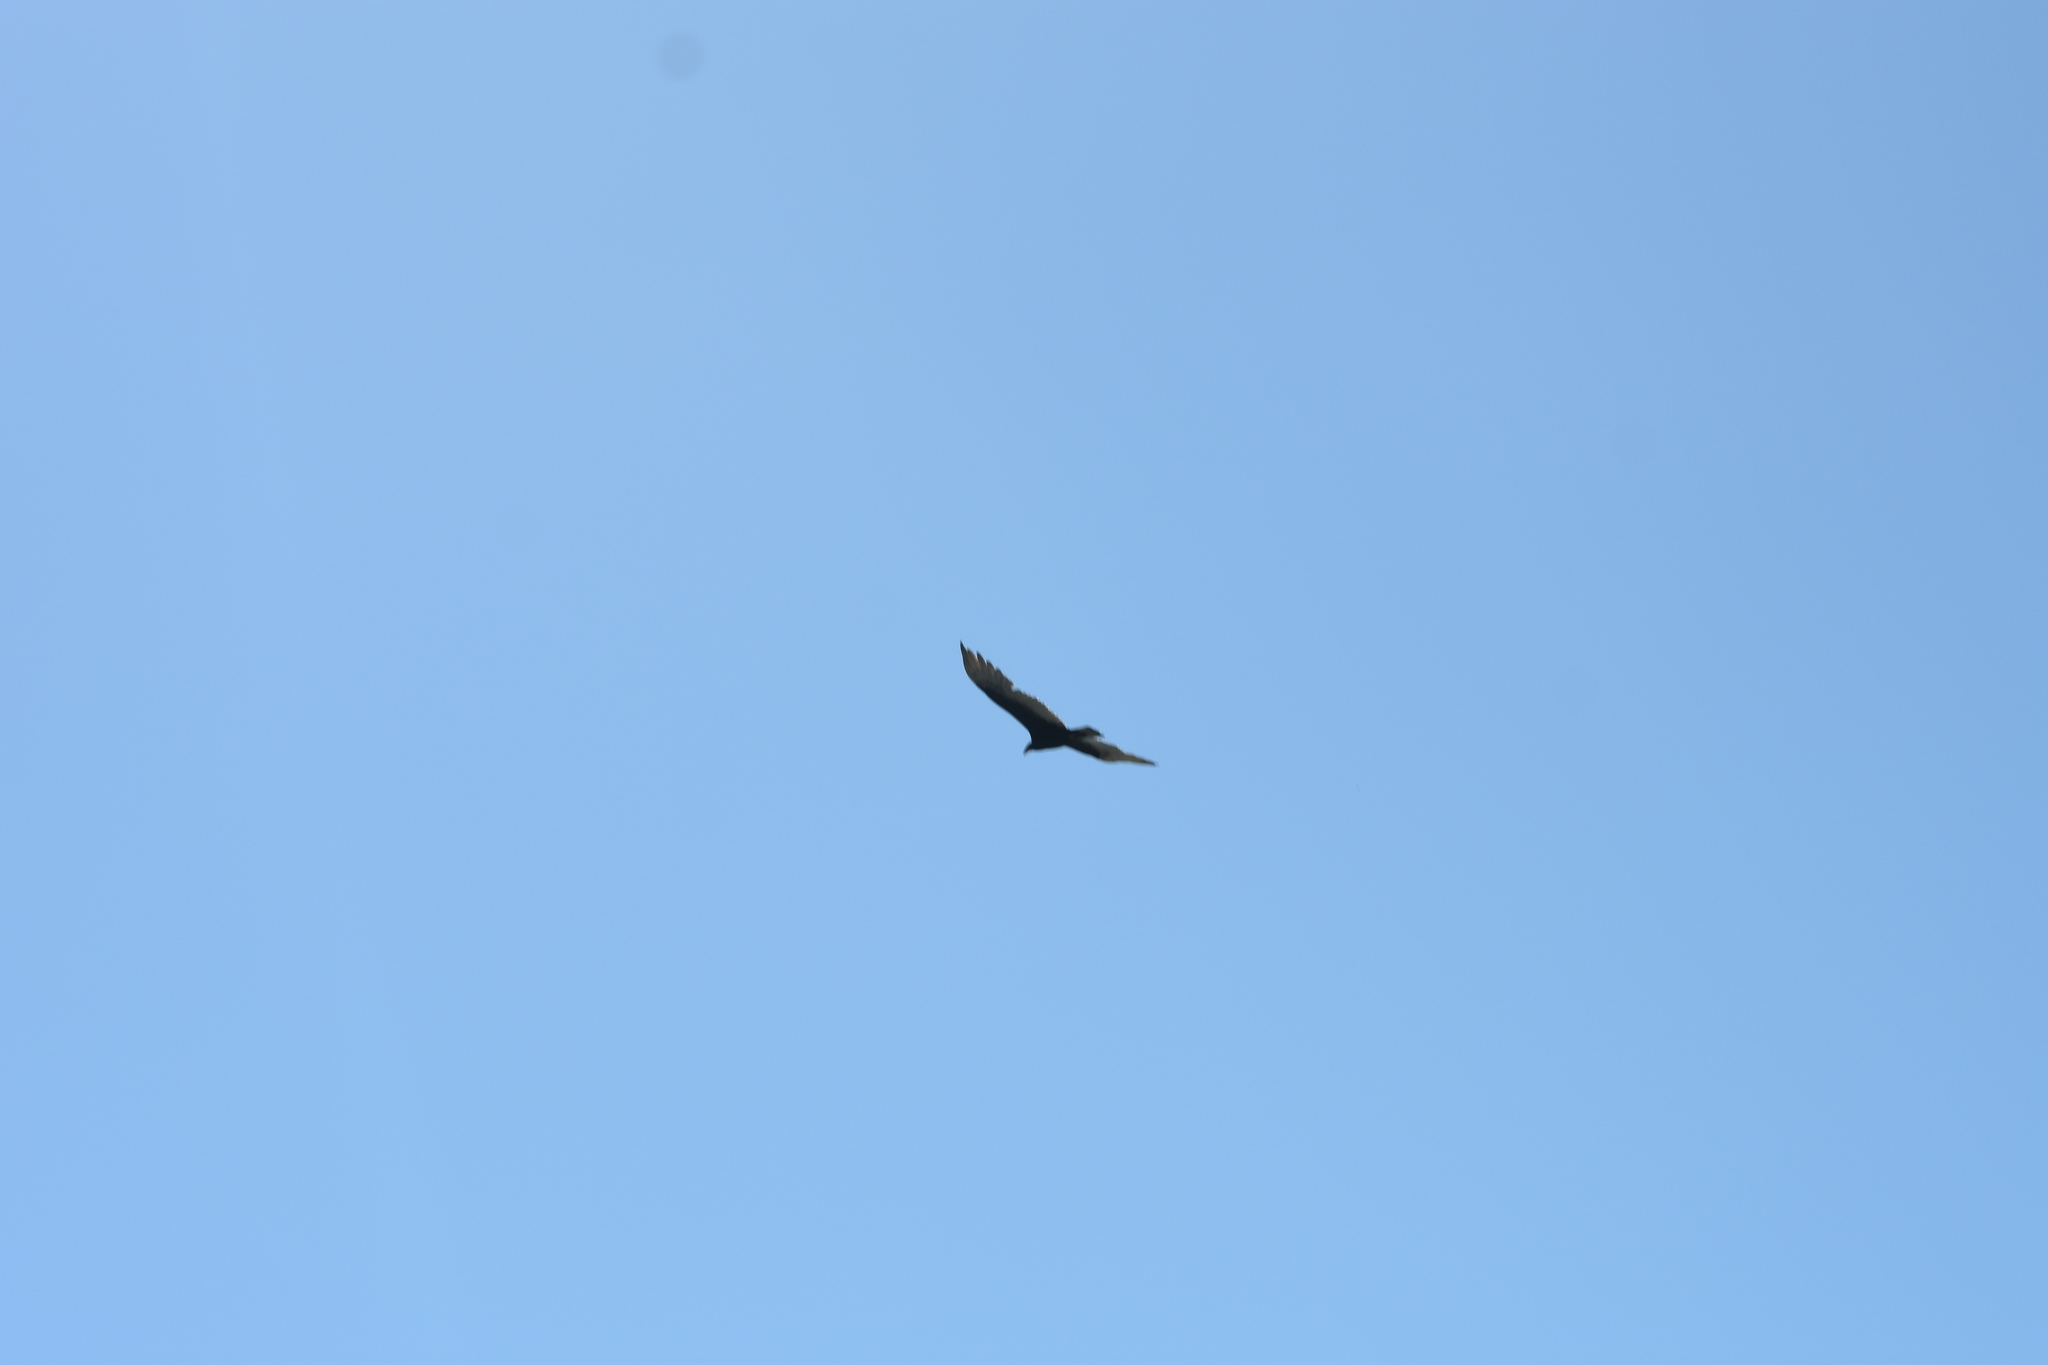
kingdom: Animalia
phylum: Chordata
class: Aves
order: Accipitriformes
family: Cathartidae
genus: Cathartes
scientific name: Cathartes aura
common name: Turkey vulture
